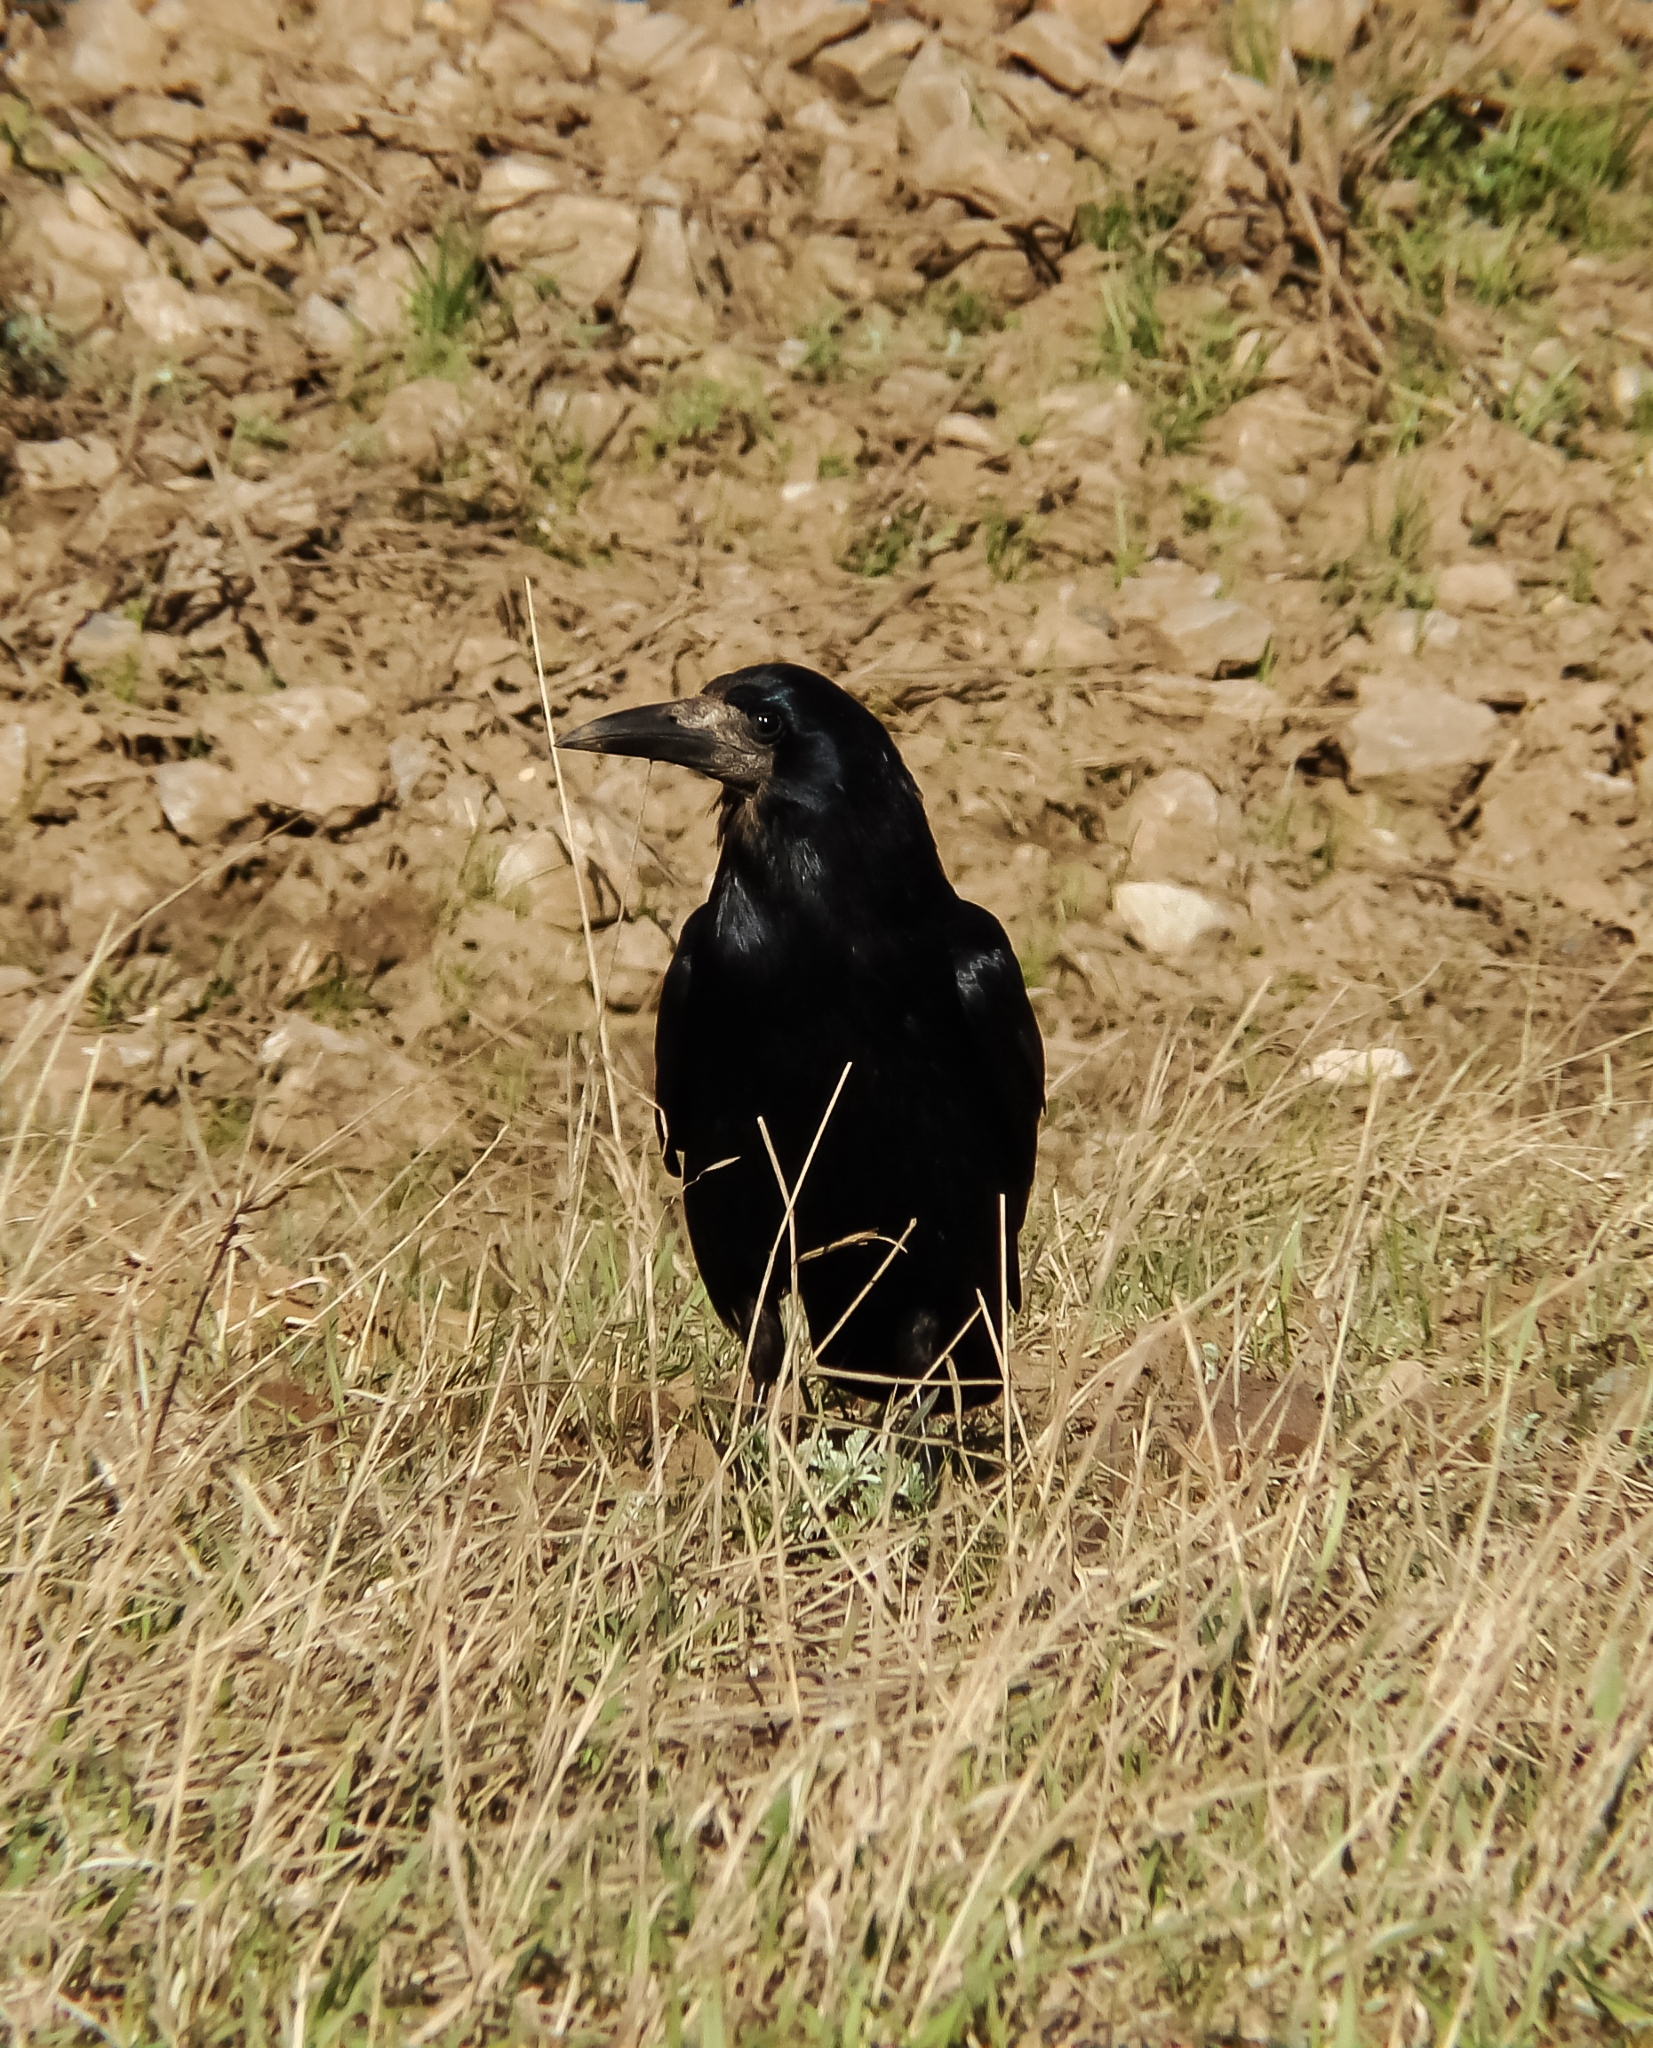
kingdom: Animalia
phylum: Chordata
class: Aves
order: Passeriformes
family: Corvidae
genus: Corvus
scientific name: Corvus frugilegus
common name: Rook
